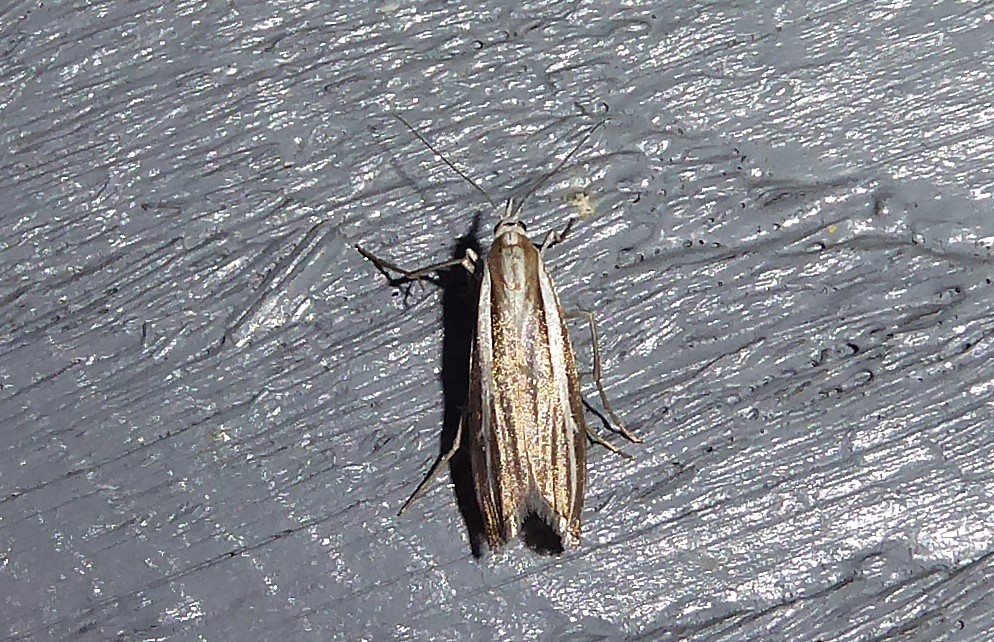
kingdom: Animalia
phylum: Arthropoda
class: Insecta
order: Lepidoptera
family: Crambidae
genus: Orocrambus
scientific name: Orocrambus vittellus
